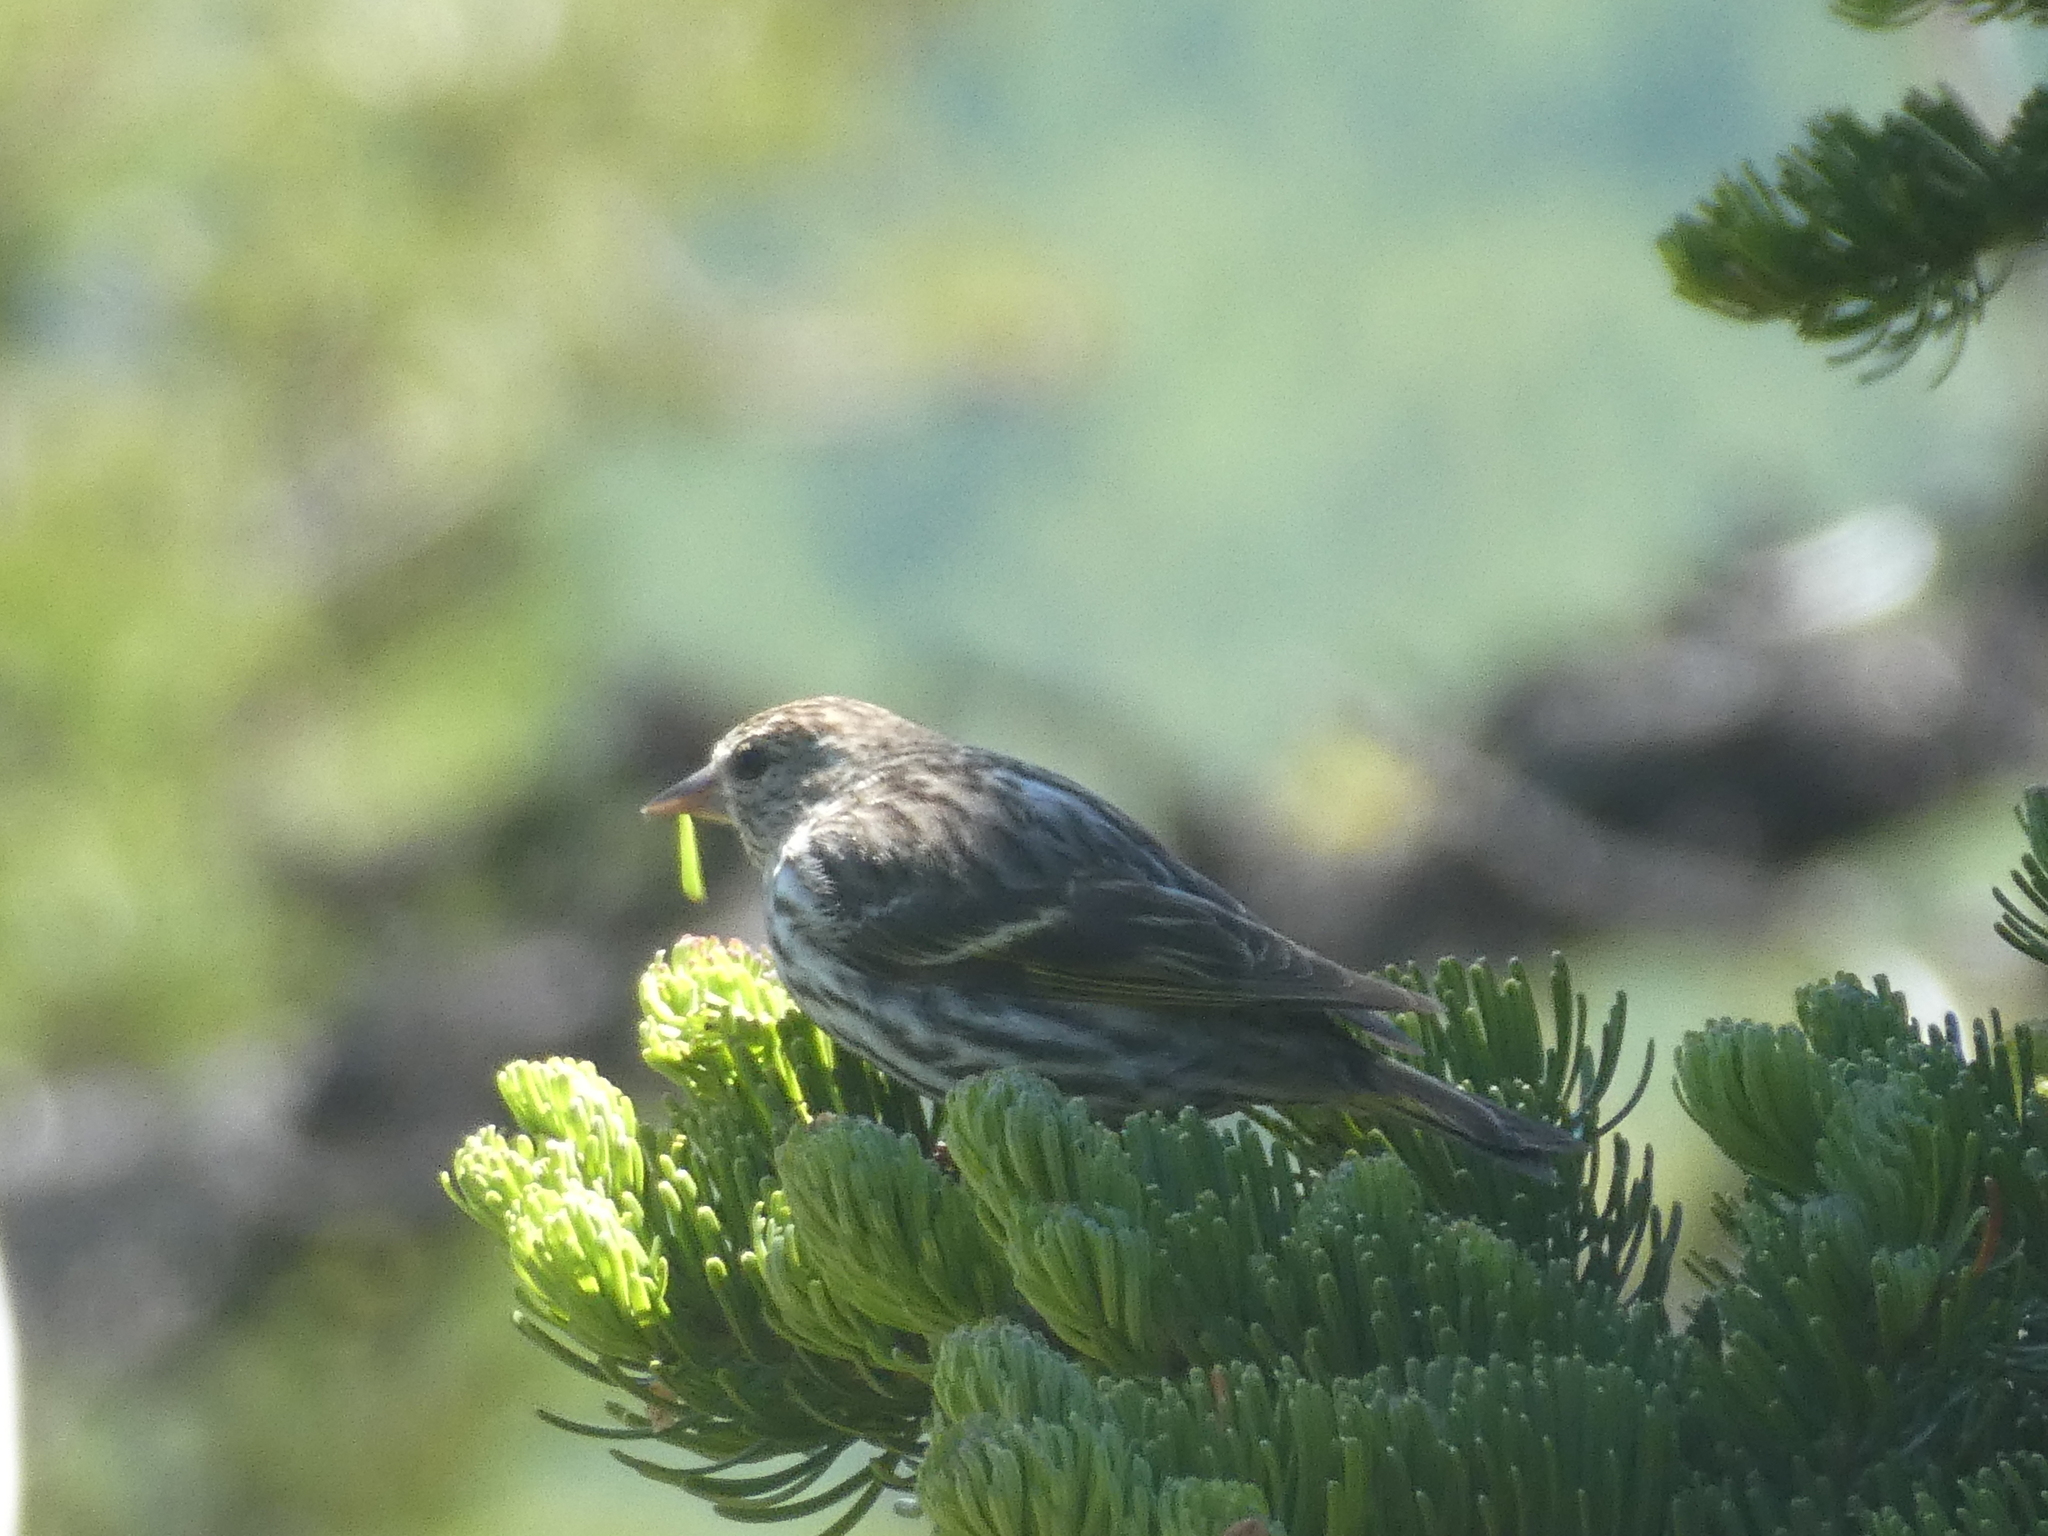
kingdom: Animalia
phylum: Chordata
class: Aves
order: Passeriformes
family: Fringillidae
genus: Spinus
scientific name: Spinus pinus
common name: Pine siskin
